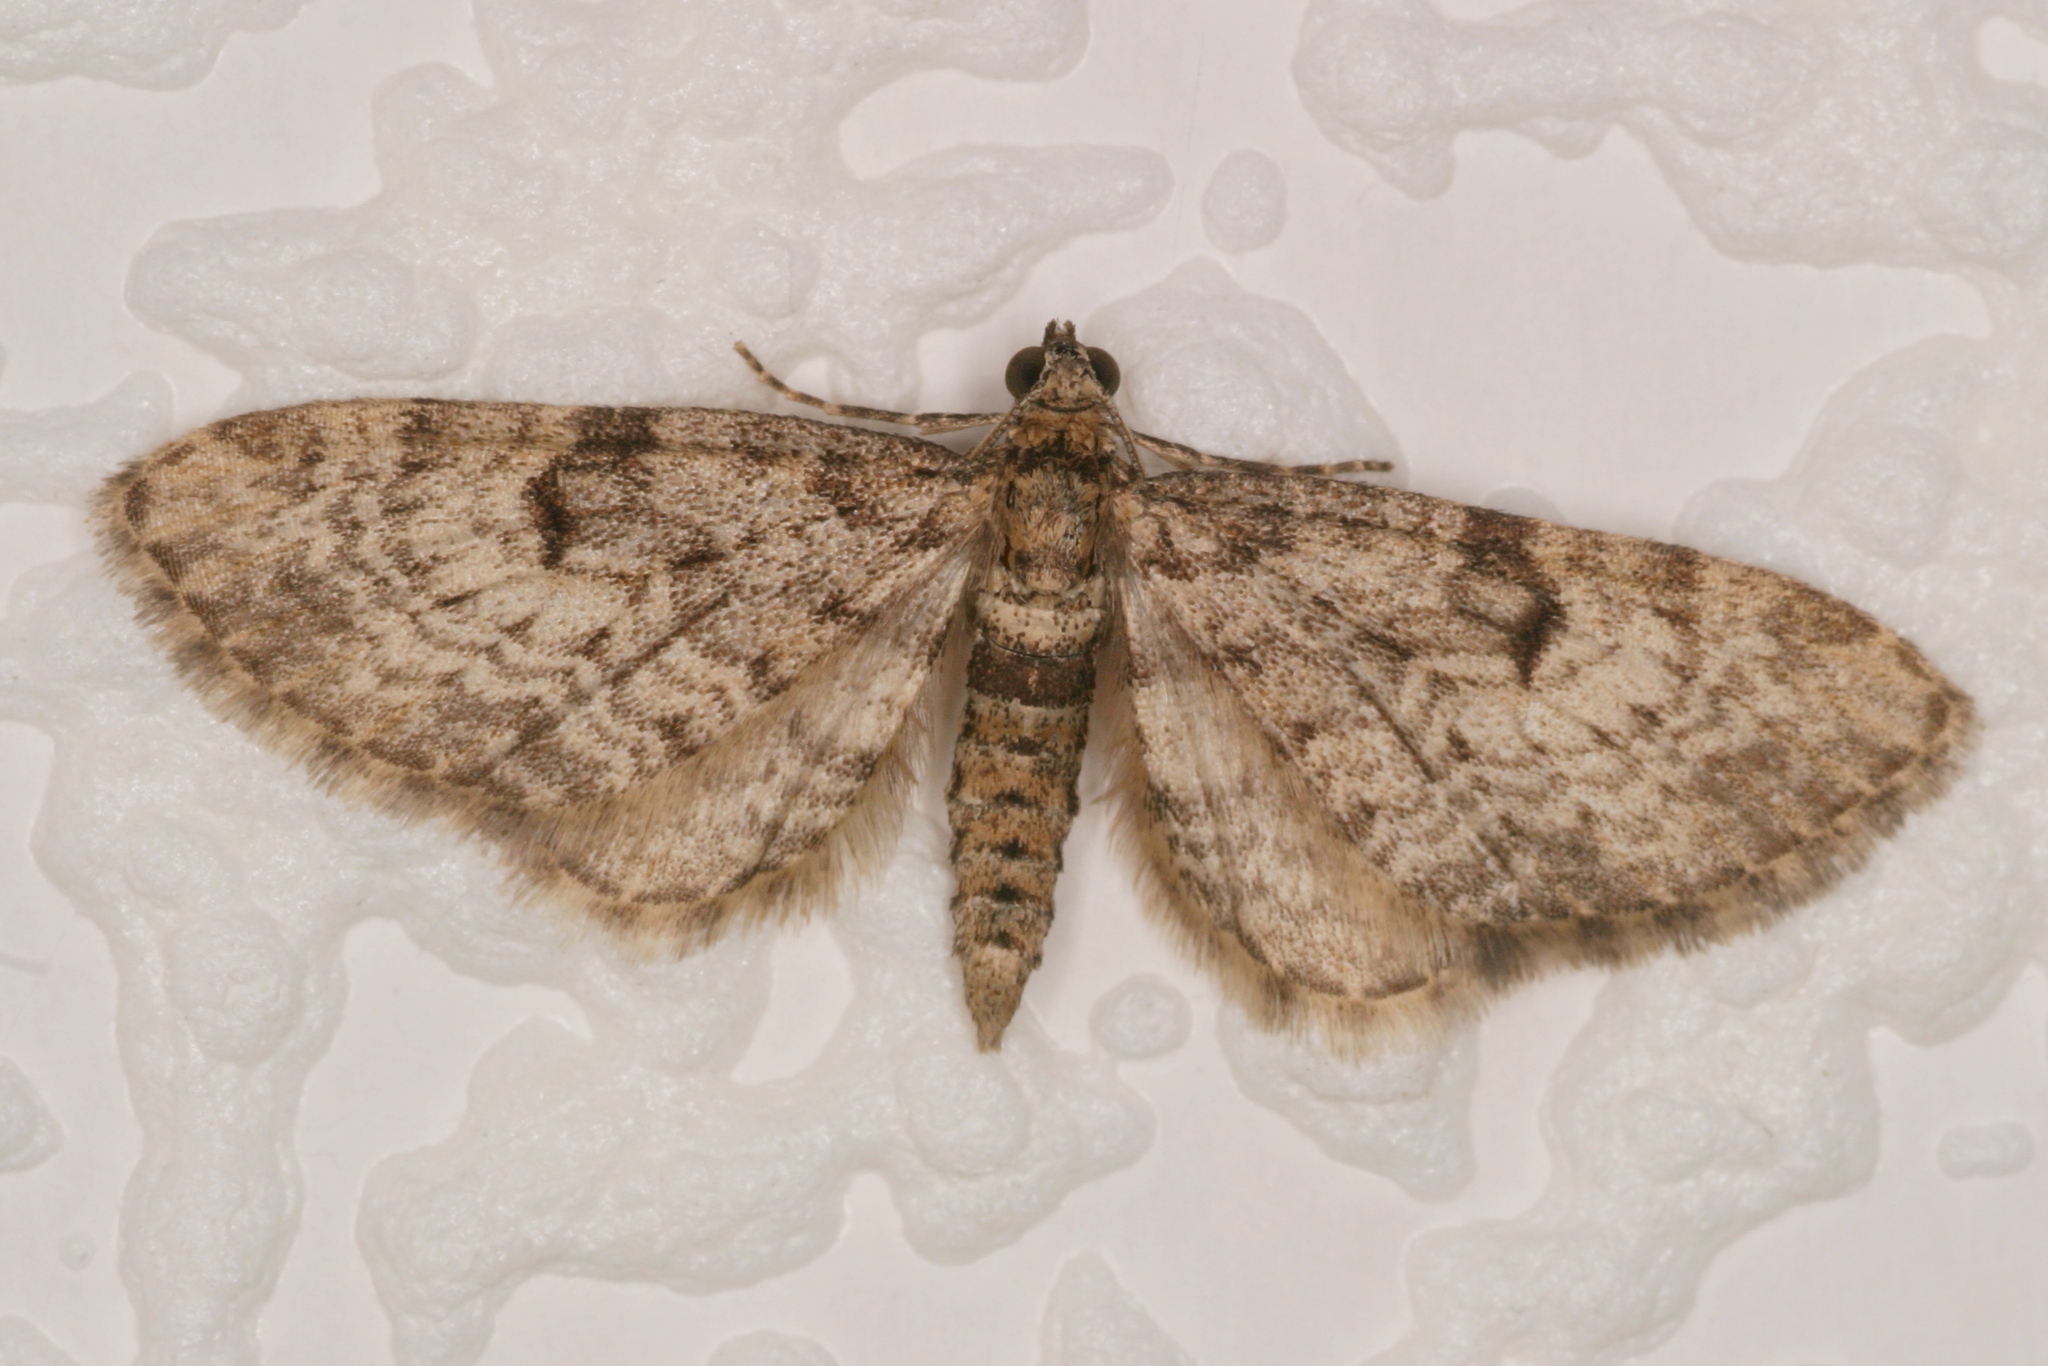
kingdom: Animalia
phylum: Arthropoda
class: Insecta
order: Lepidoptera
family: Geometridae
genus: Eupithecia
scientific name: Eupithecia tantillaria
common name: Dwarf pug
